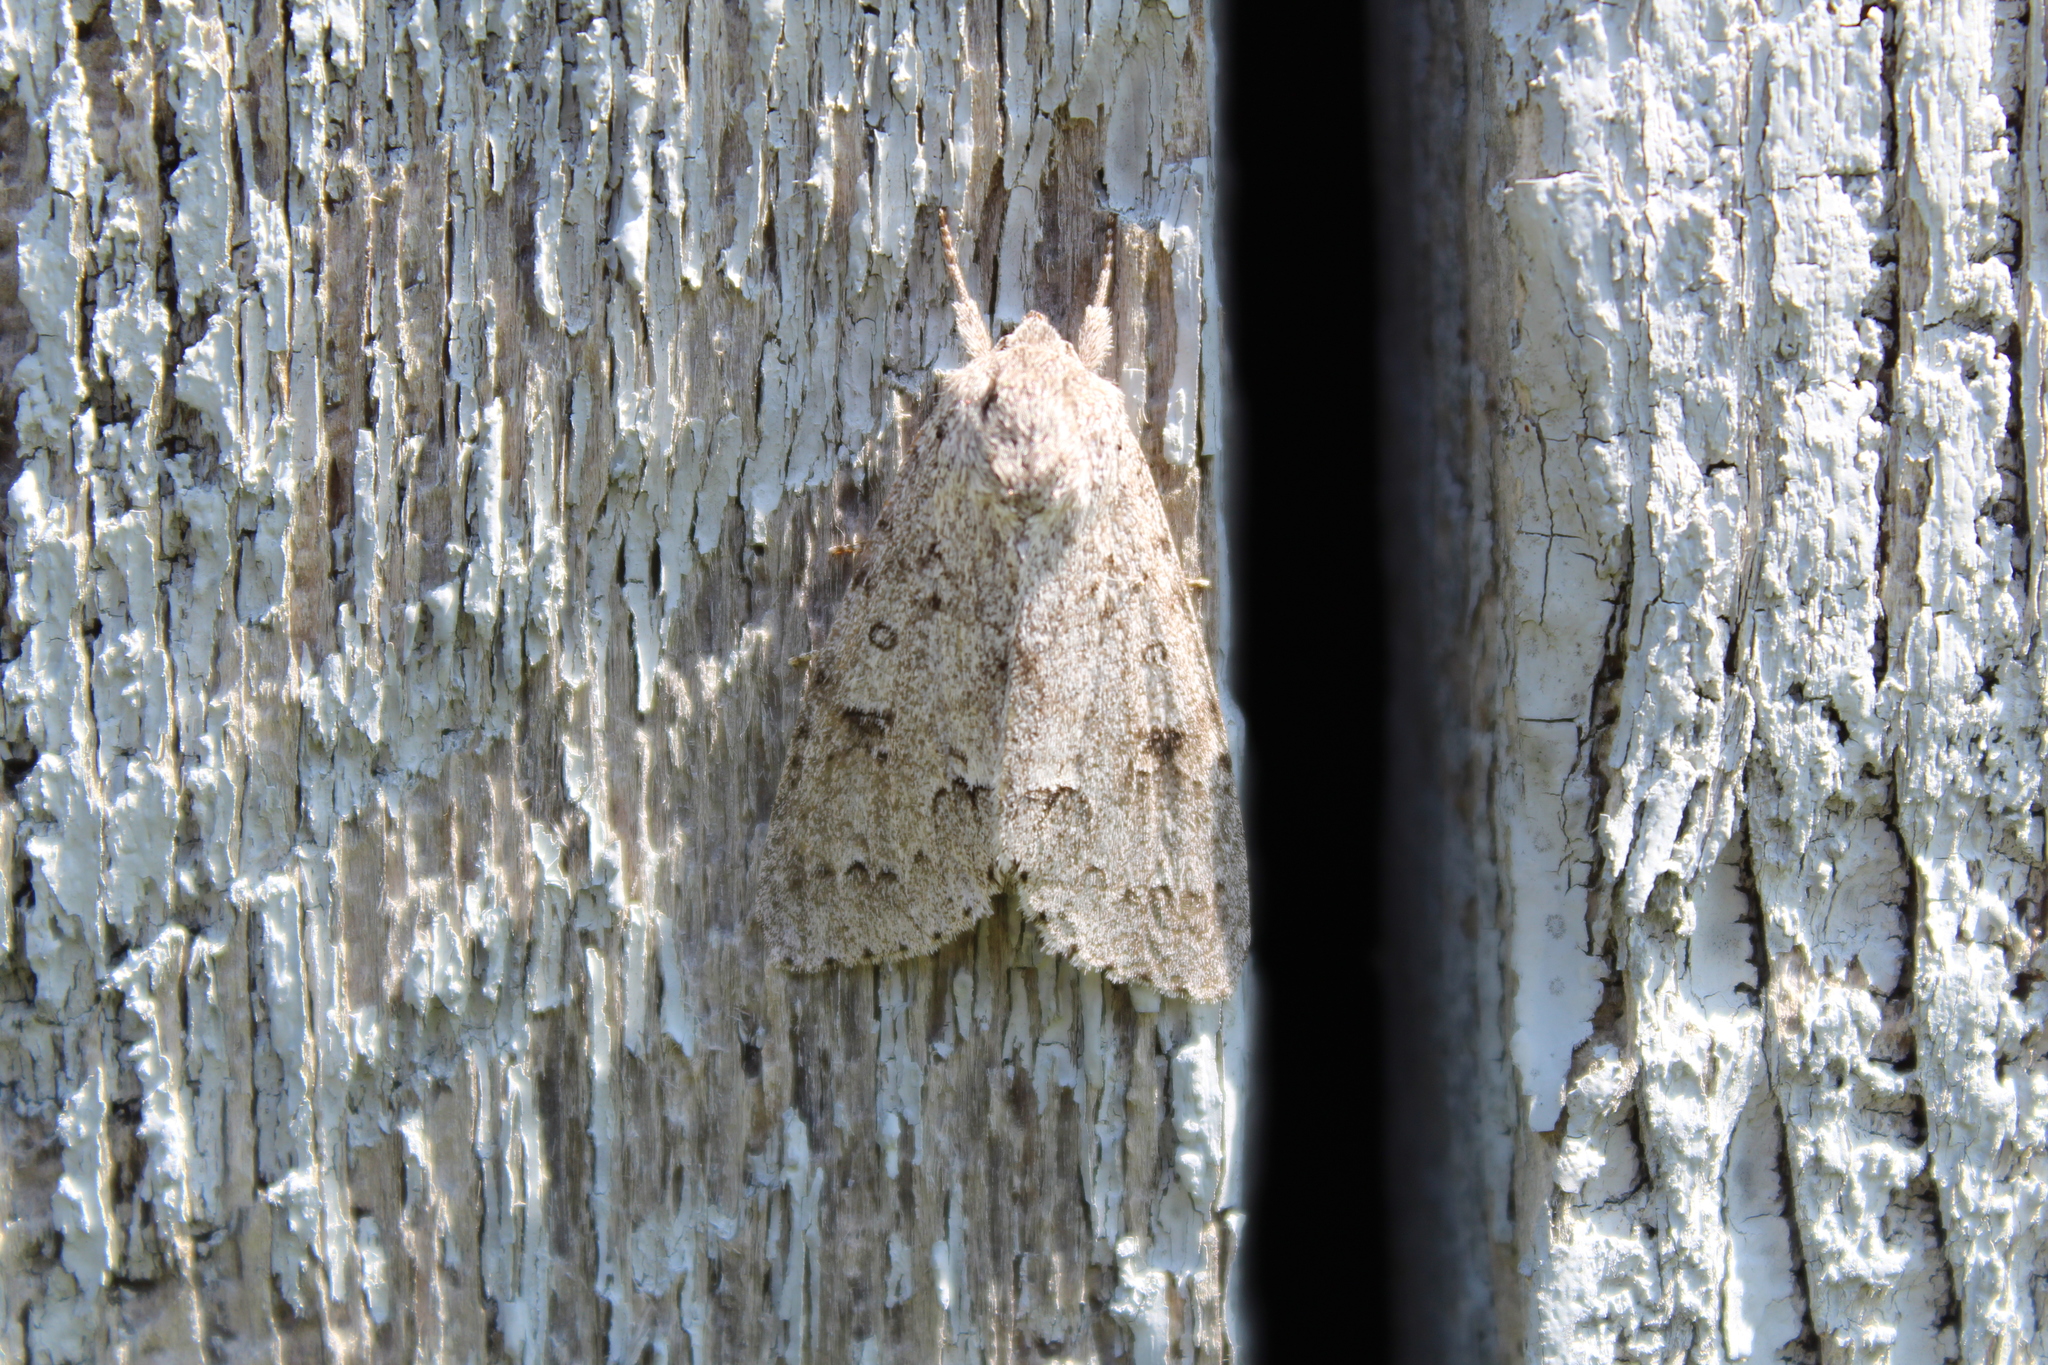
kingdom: Animalia
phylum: Arthropoda
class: Insecta
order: Lepidoptera
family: Noctuidae
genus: Acronicta
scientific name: Acronicta insita
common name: Large gray dagger
